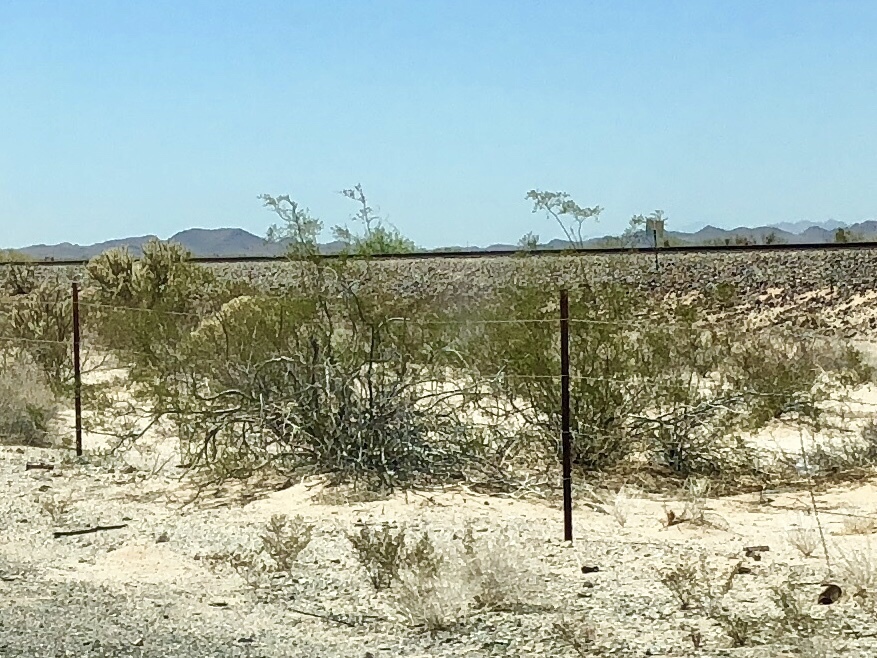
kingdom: Plantae
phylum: Tracheophyta
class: Magnoliopsida
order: Zygophyllales
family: Zygophyllaceae
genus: Larrea
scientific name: Larrea tridentata
